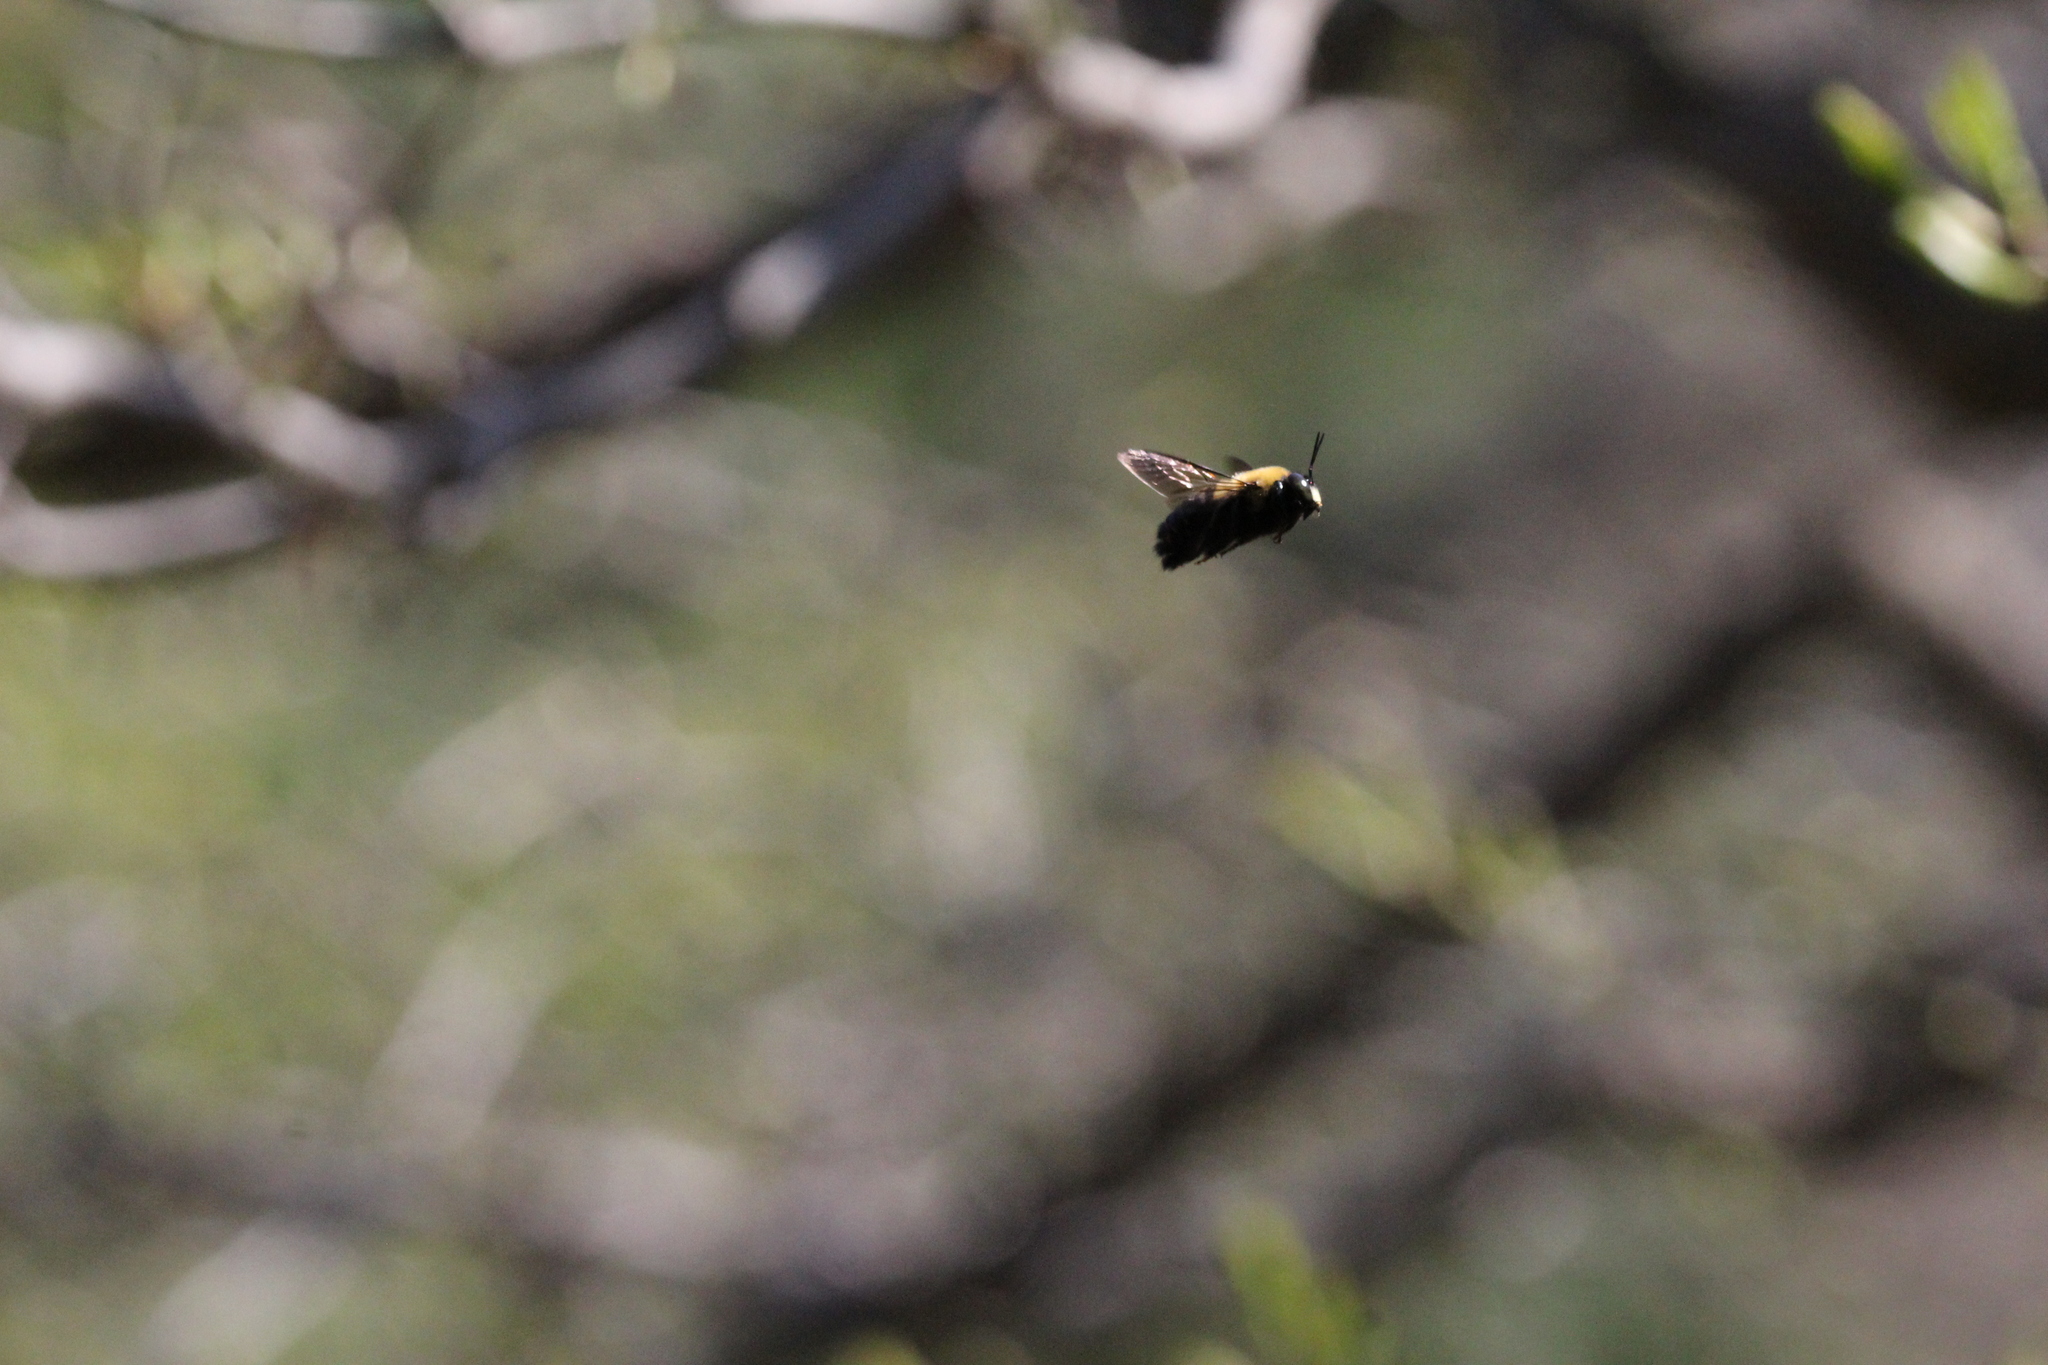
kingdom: Animalia
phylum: Arthropoda
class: Insecta
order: Hymenoptera
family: Apidae
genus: Xylocopa
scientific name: Xylocopa virginica
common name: Carpenter bee
